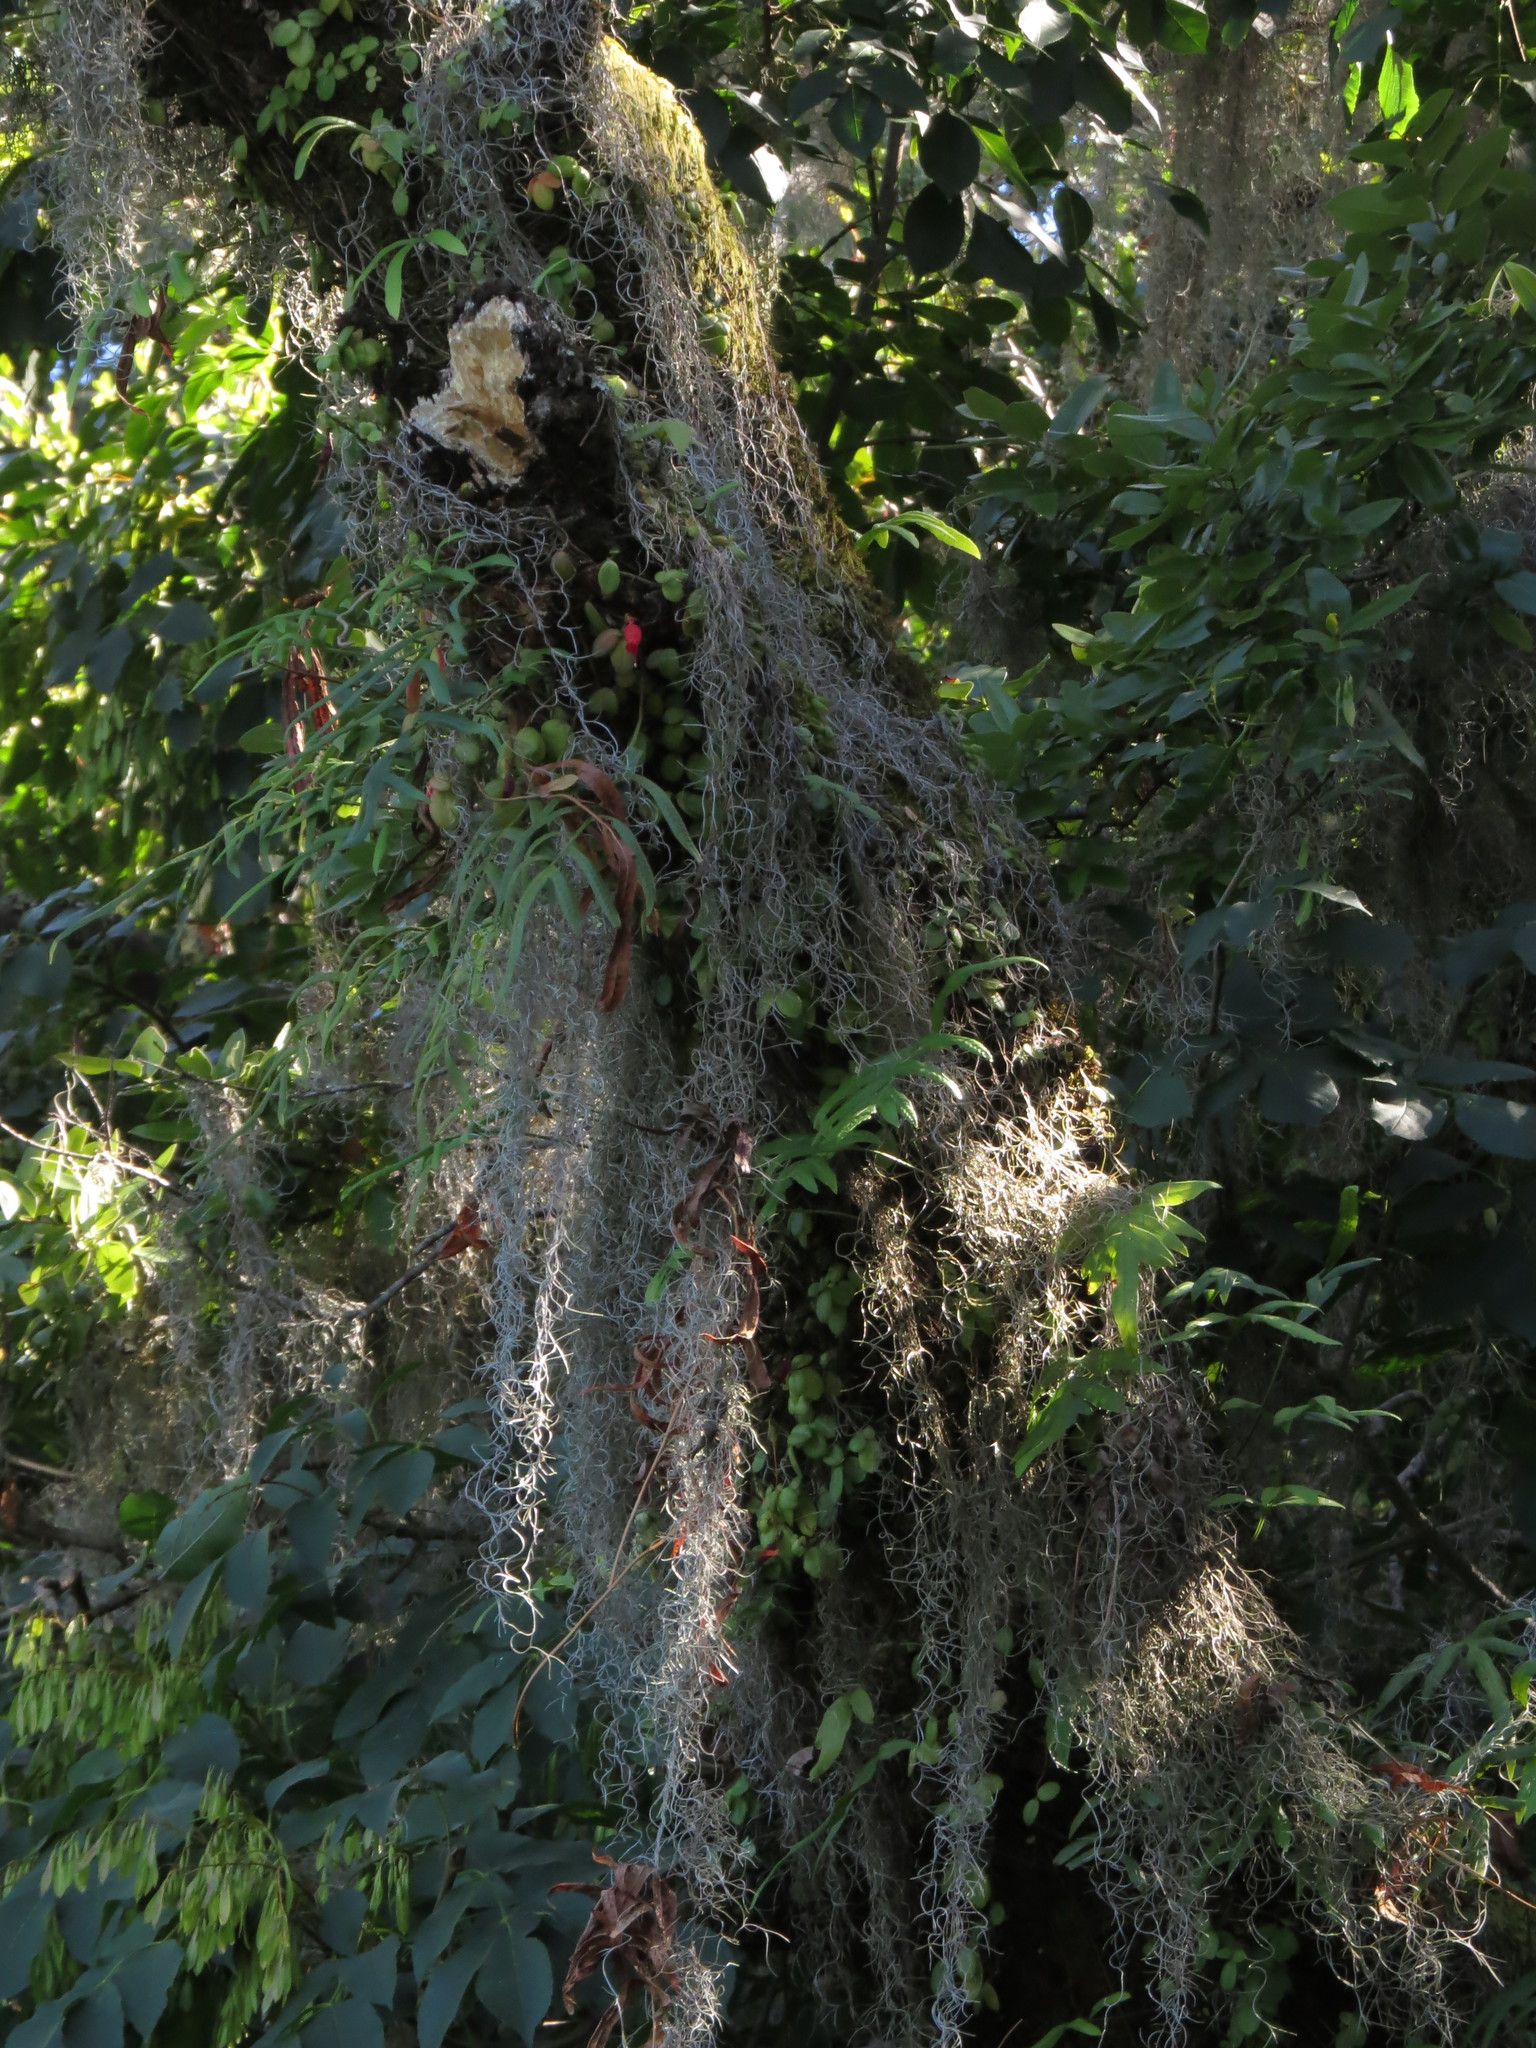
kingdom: Plantae
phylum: Tracheophyta
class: Magnoliopsida
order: Lamiales
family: Gesneriaceae
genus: Sarmienta
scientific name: Sarmienta scandens
